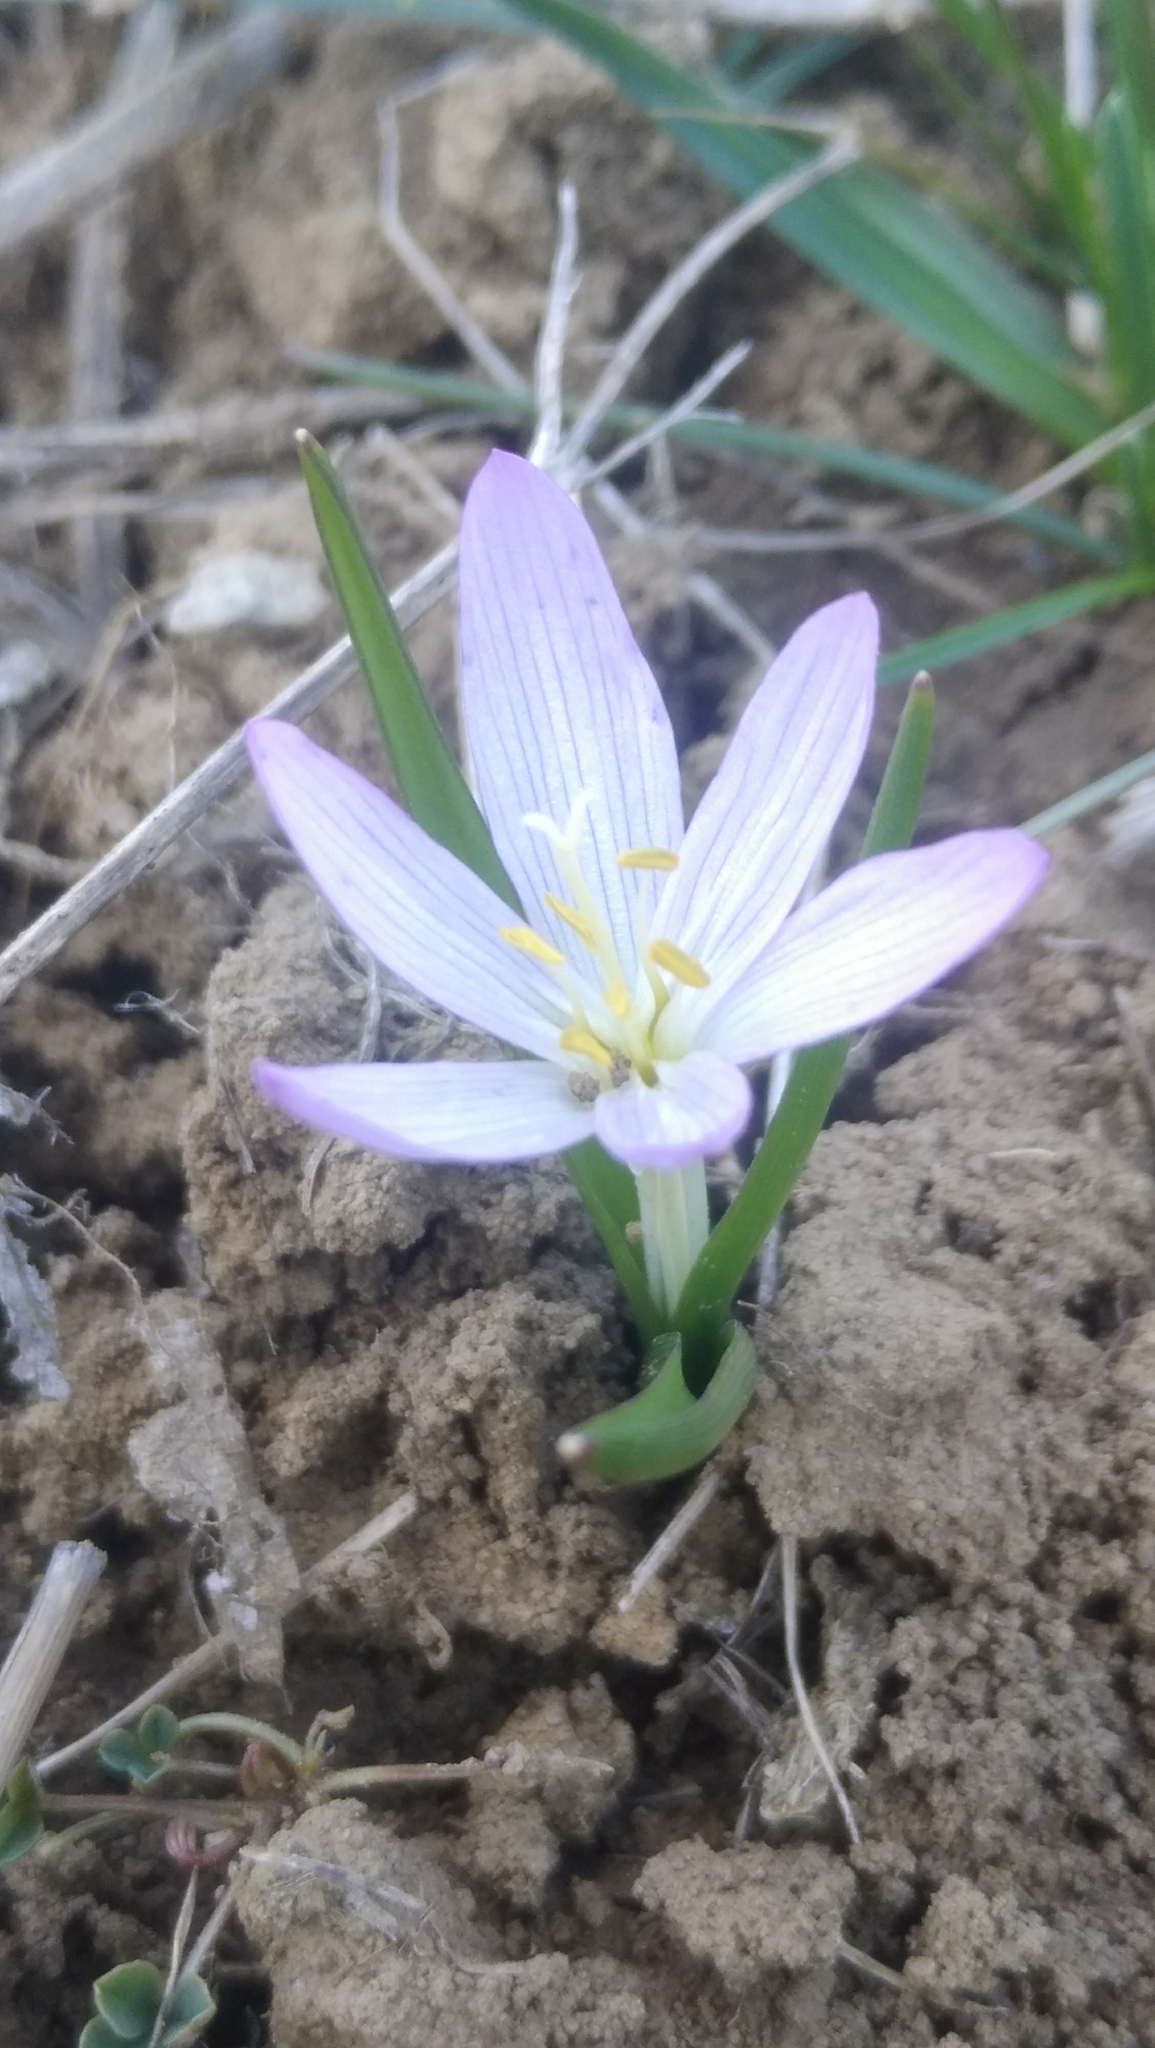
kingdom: Plantae
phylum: Tracheophyta
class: Liliopsida
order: Liliales
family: Colchicaceae
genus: Colchicum
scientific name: Colchicum bulbocodium
